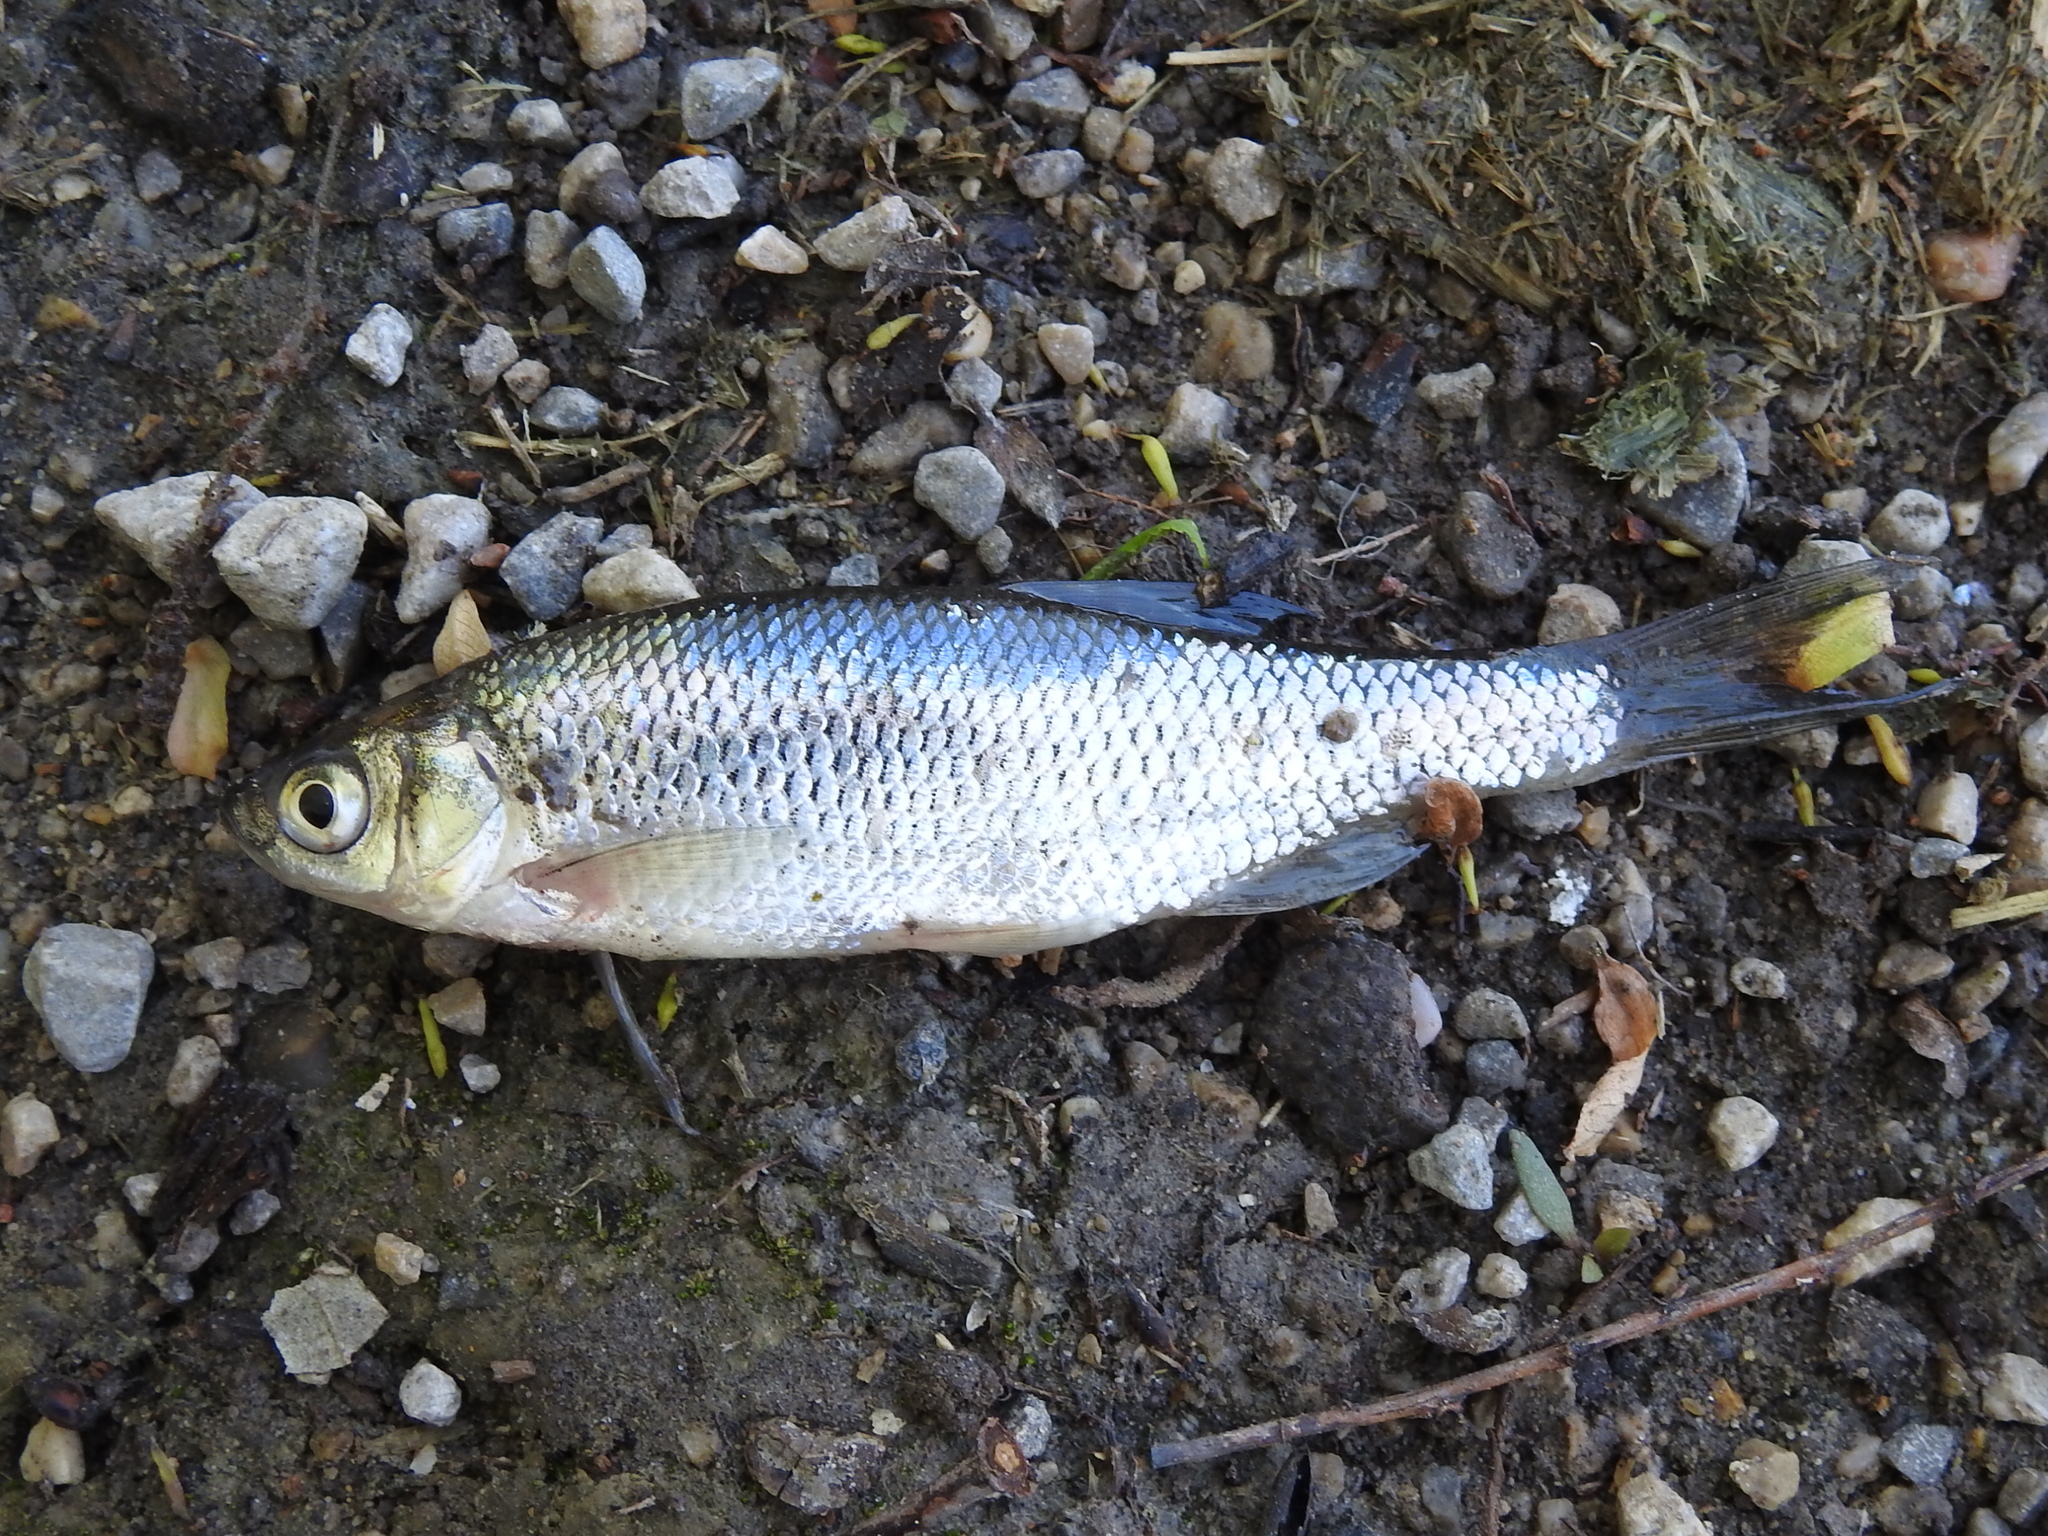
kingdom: Animalia
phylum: Chordata
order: Cypriniformes
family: Cyprinidae
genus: Notemigonus
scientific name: Notemigonus crysoleucas
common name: Golden shiner
